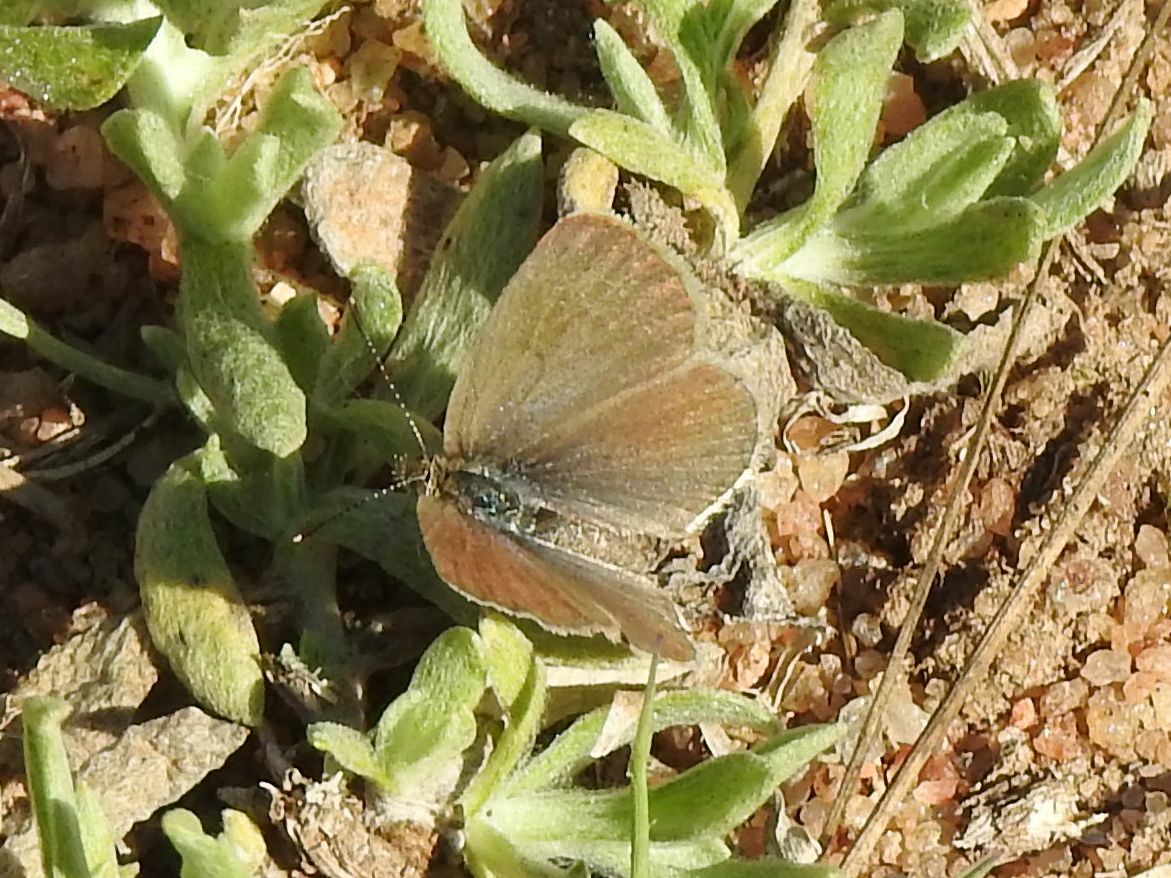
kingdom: Animalia
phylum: Arthropoda
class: Insecta
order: Lepidoptera
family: Lycaenidae
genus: Zizeeria
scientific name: Zizeeria knysna
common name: African grass blue
